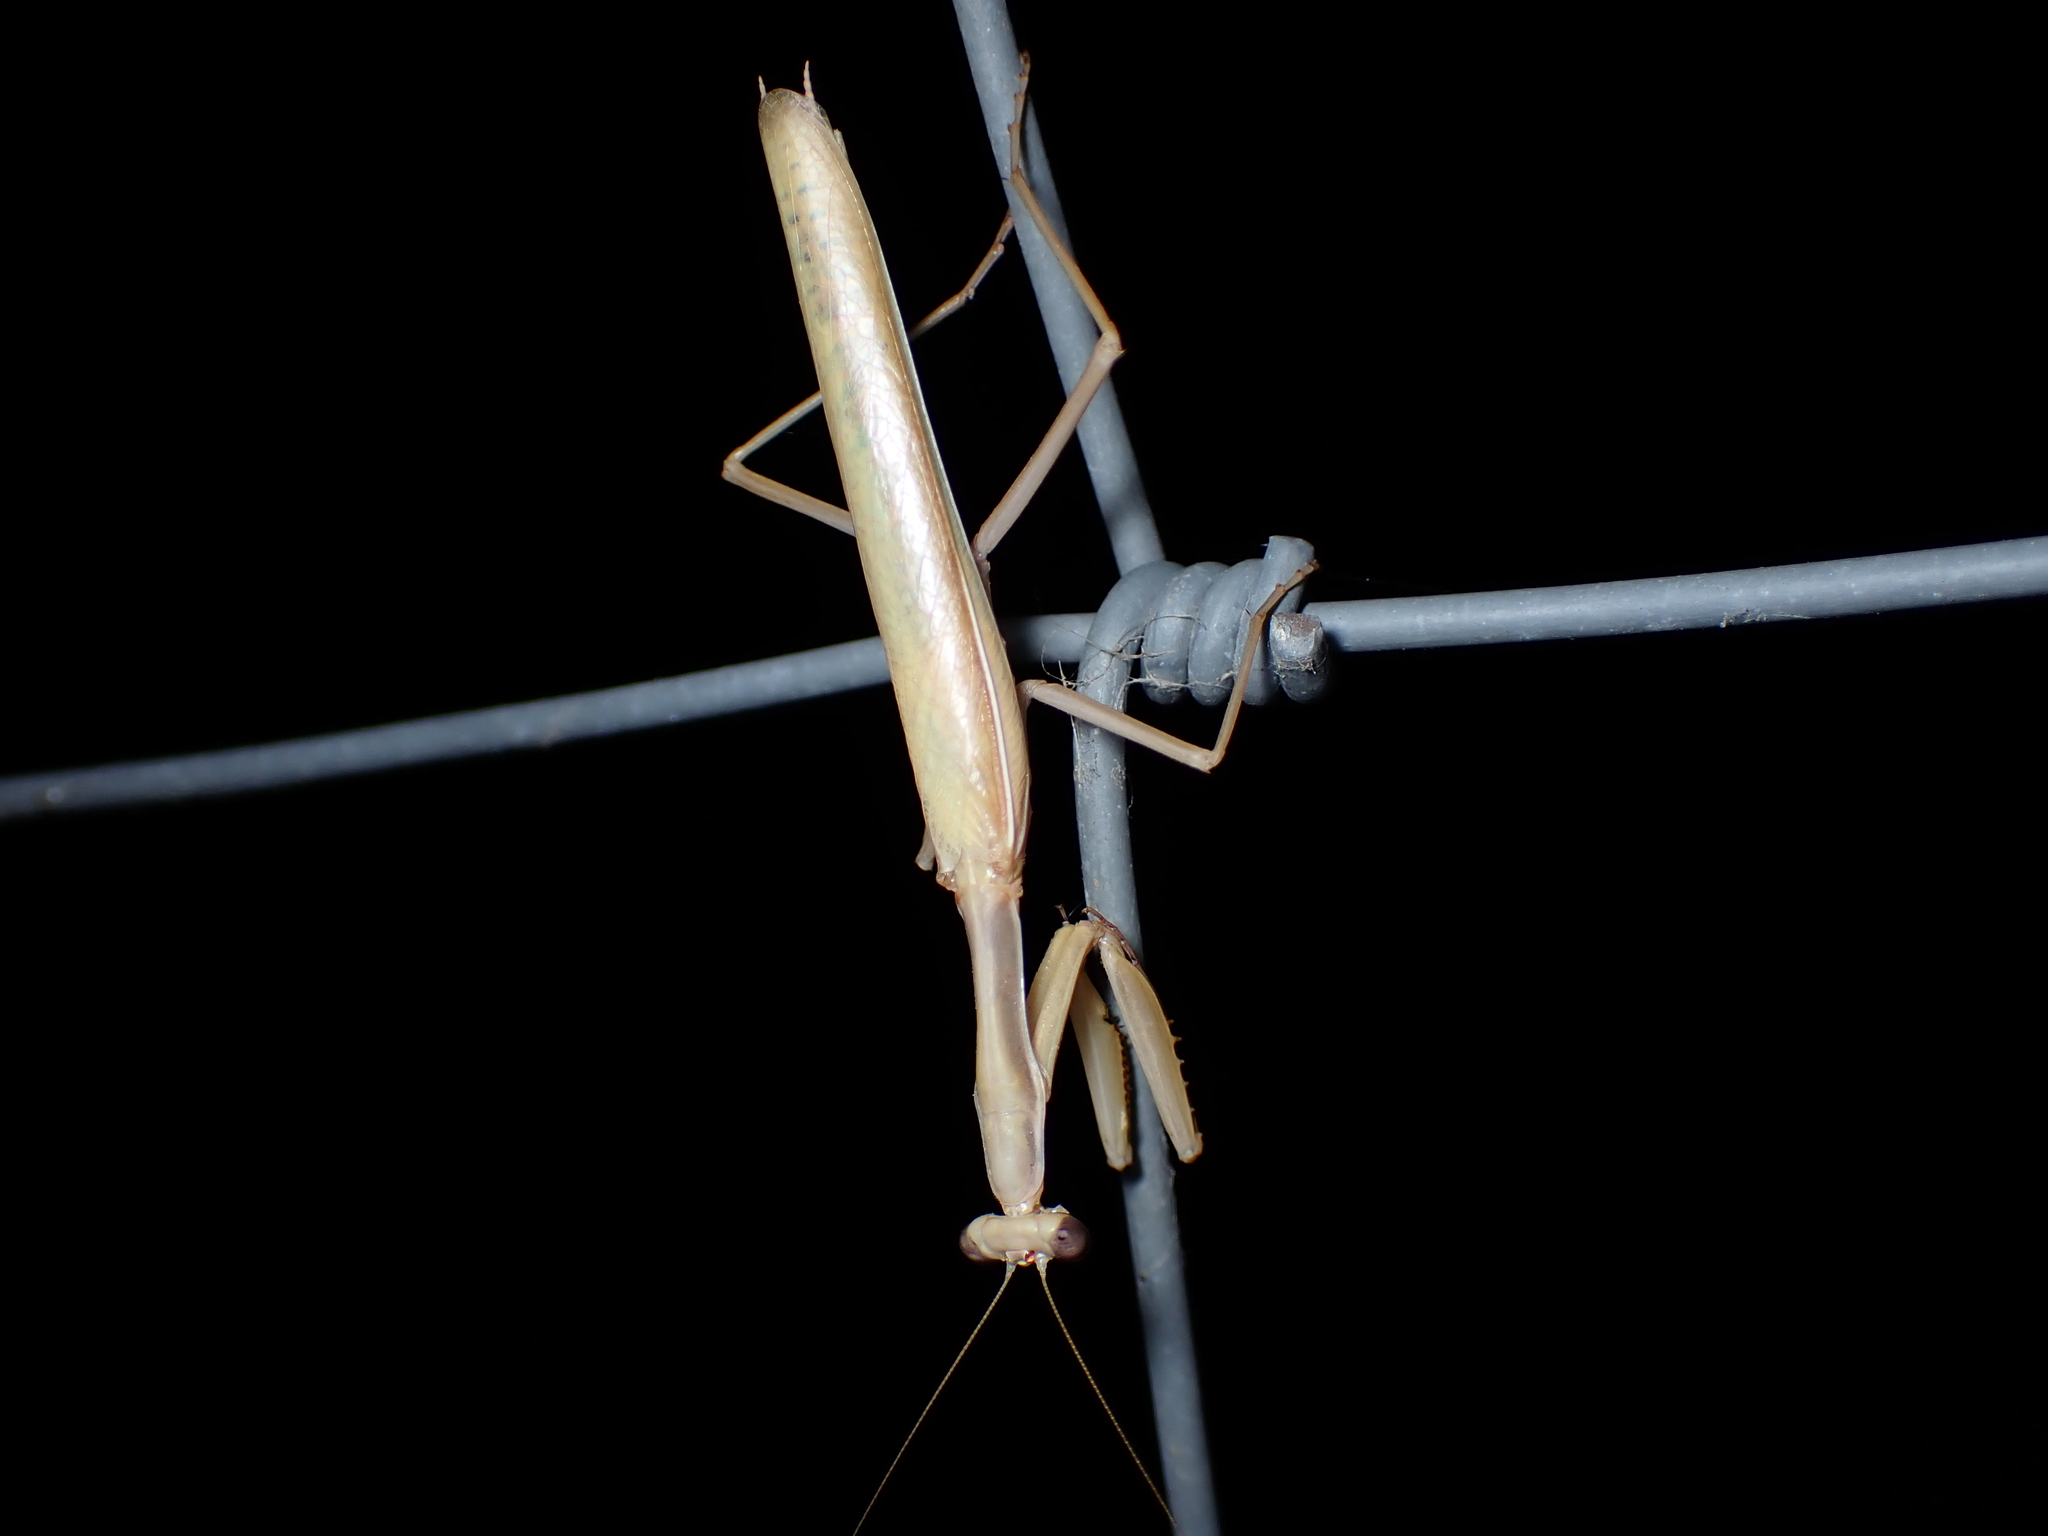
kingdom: Animalia
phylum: Arthropoda
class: Insecta
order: Mantodea
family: Eremiaphilidae
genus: Iris
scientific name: Iris oratoria
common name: Mediterranean mantis
